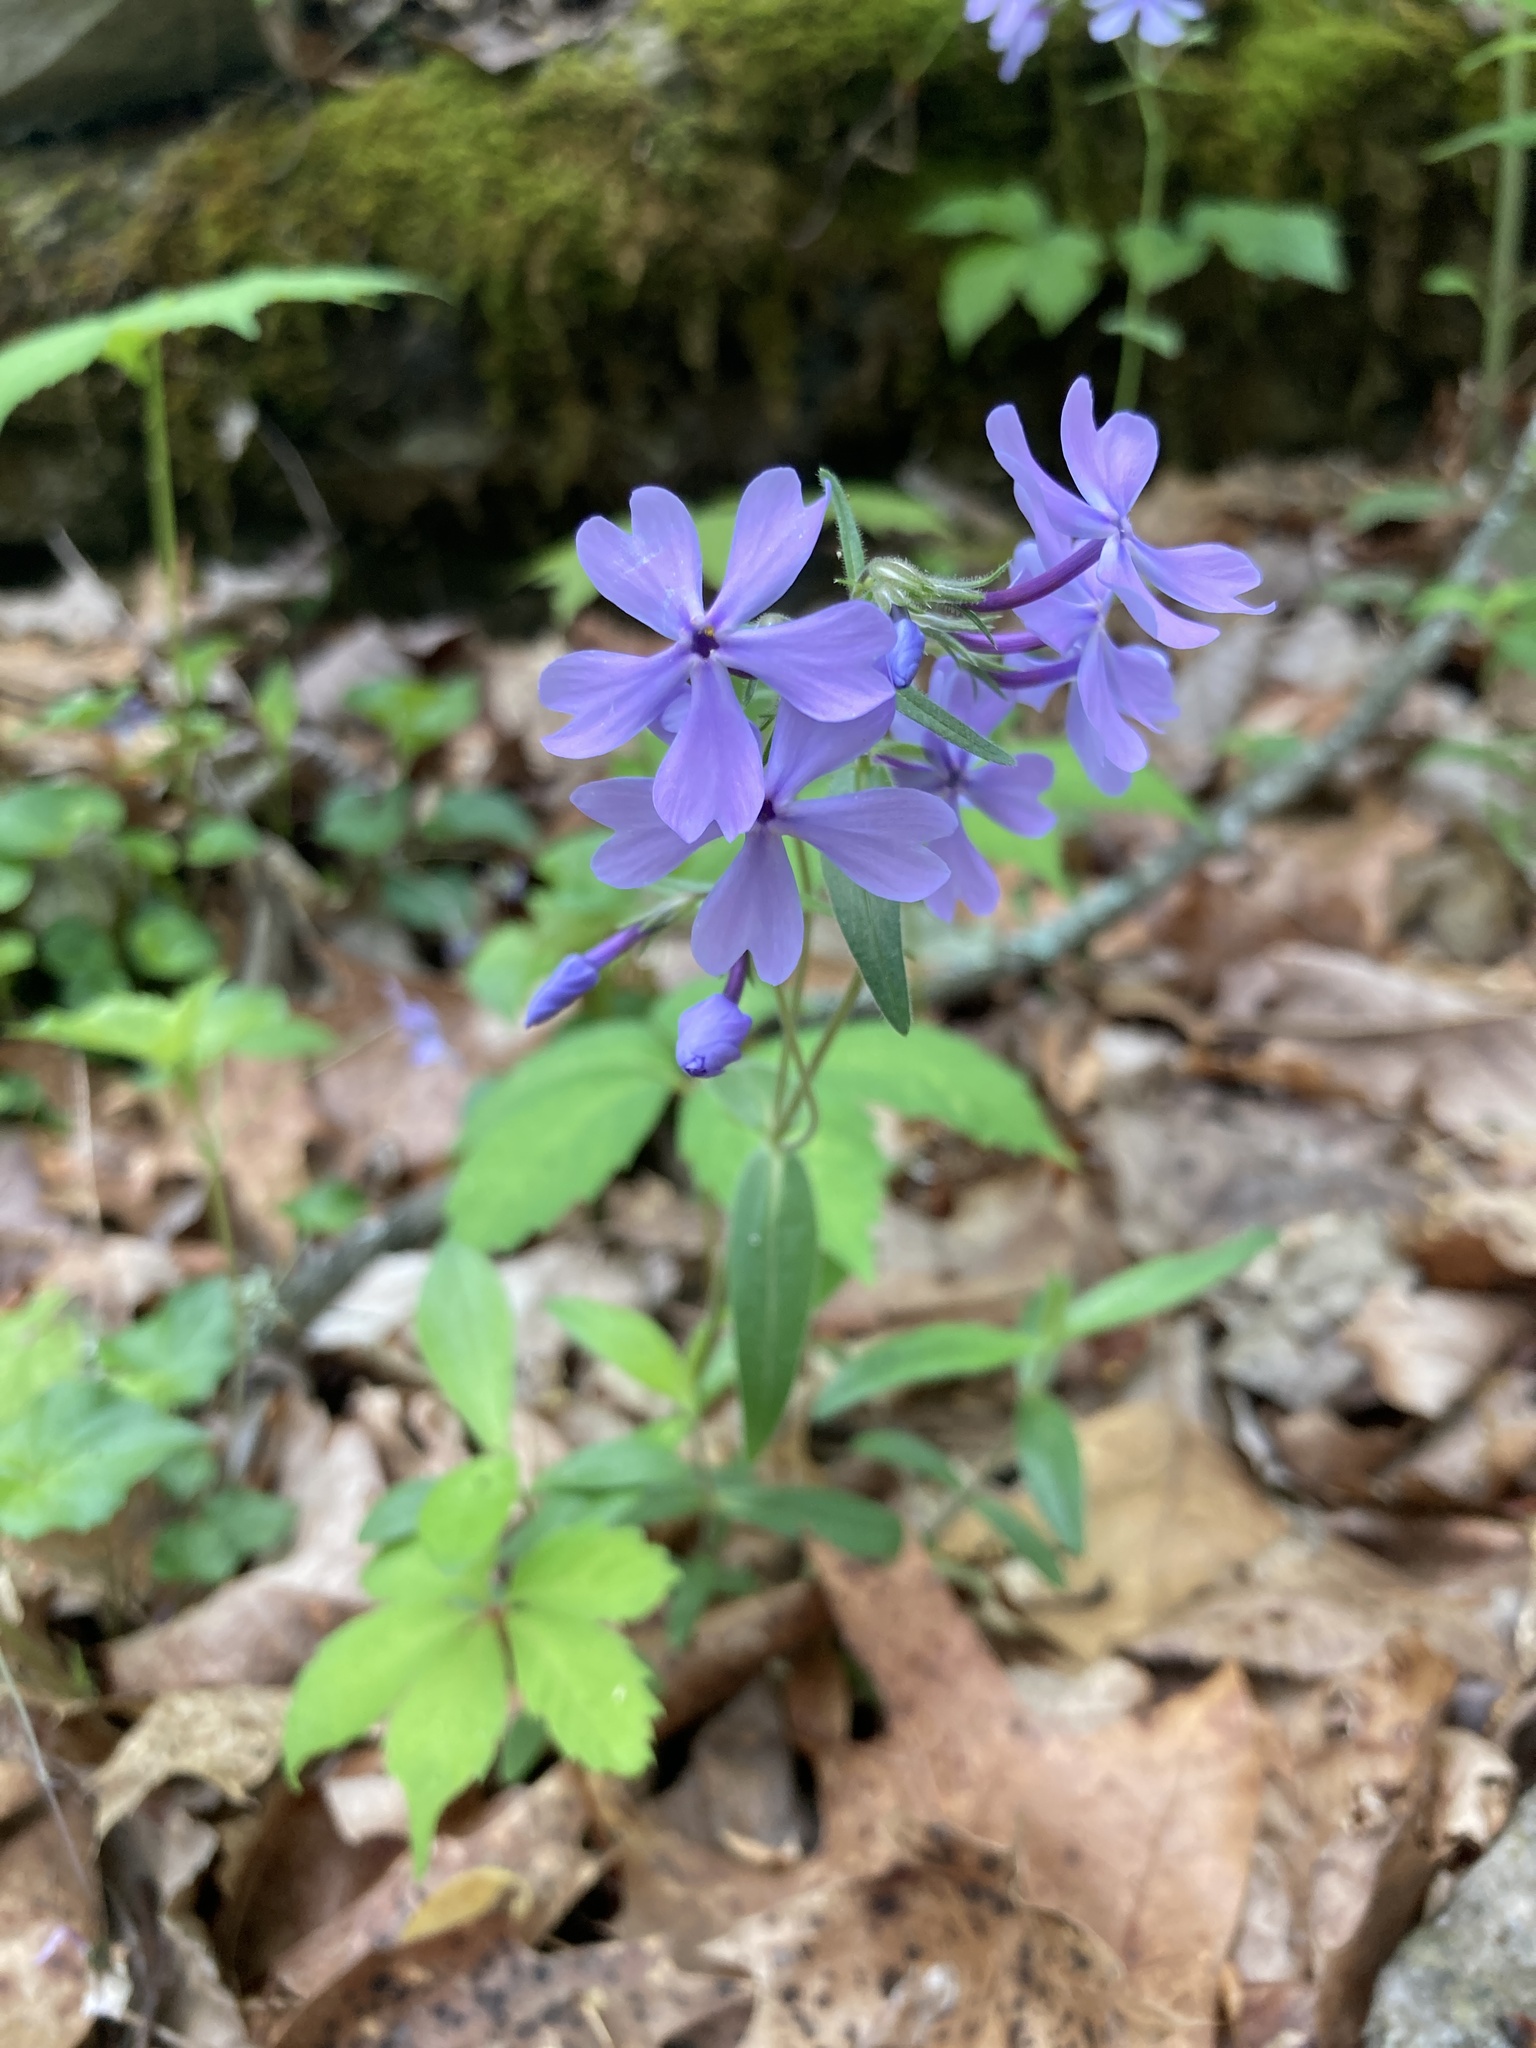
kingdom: Plantae
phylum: Tracheophyta
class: Magnoliopsida
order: Ericales
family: Polemoniaceae
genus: Phlox
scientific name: Phlox divaricata
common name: Blue phlox
